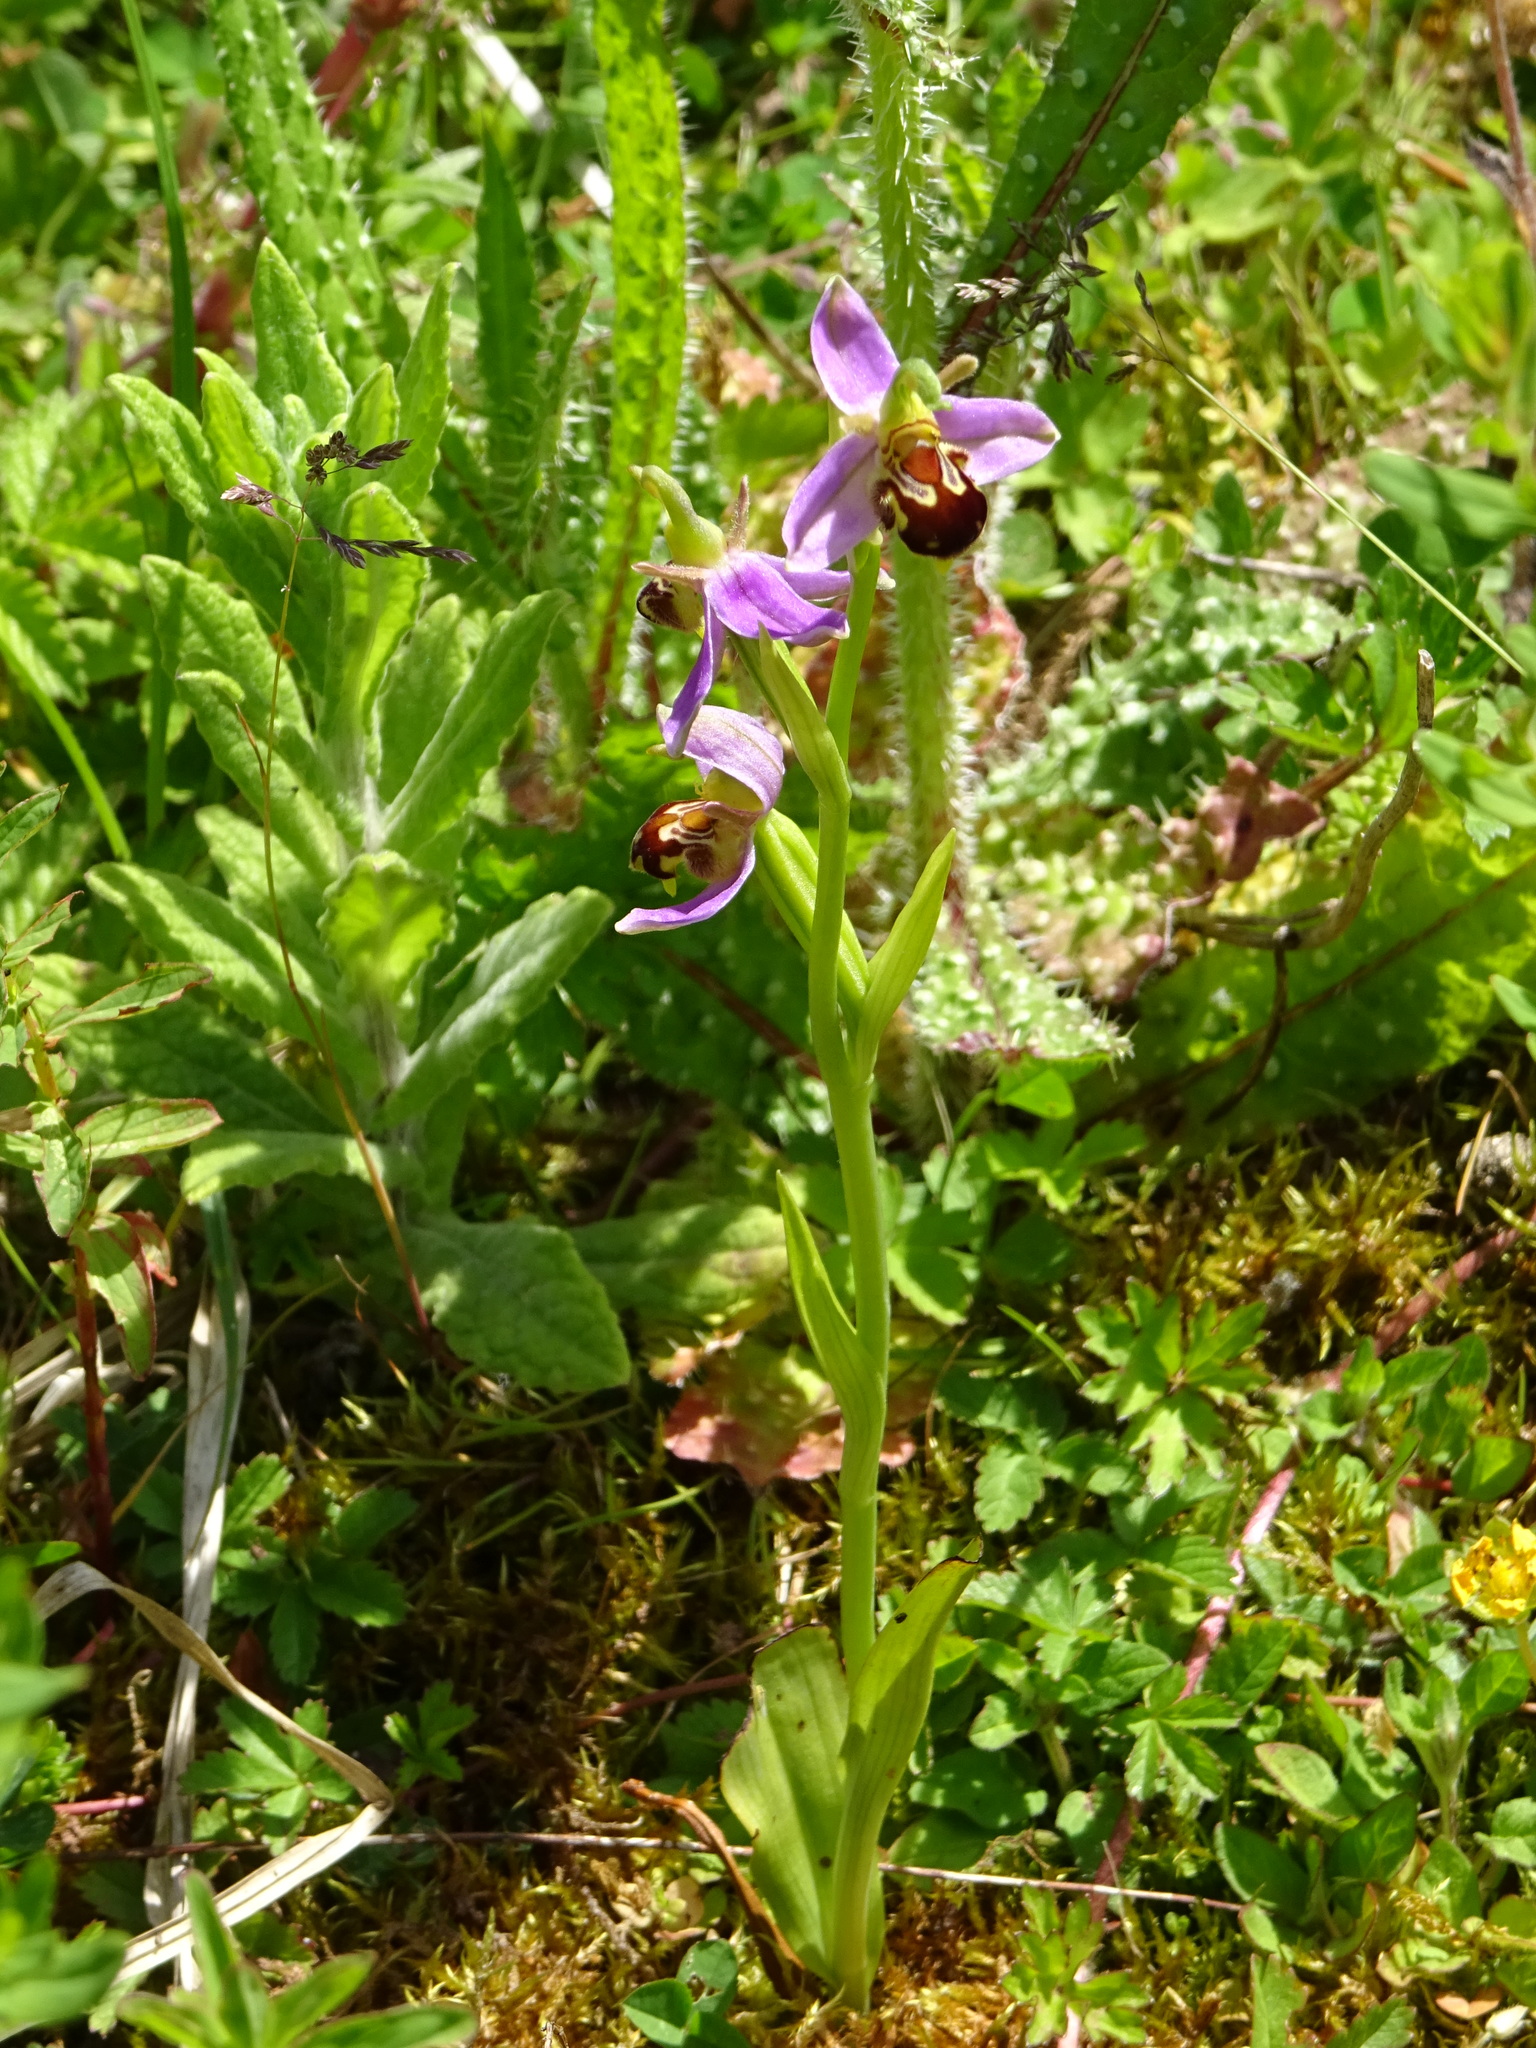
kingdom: Plantae
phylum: Tracheophyta
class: Liliopsida
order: Asparagales
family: Orchidaceae
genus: Ophrys
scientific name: Ophrys apifera
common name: Bee orchid
